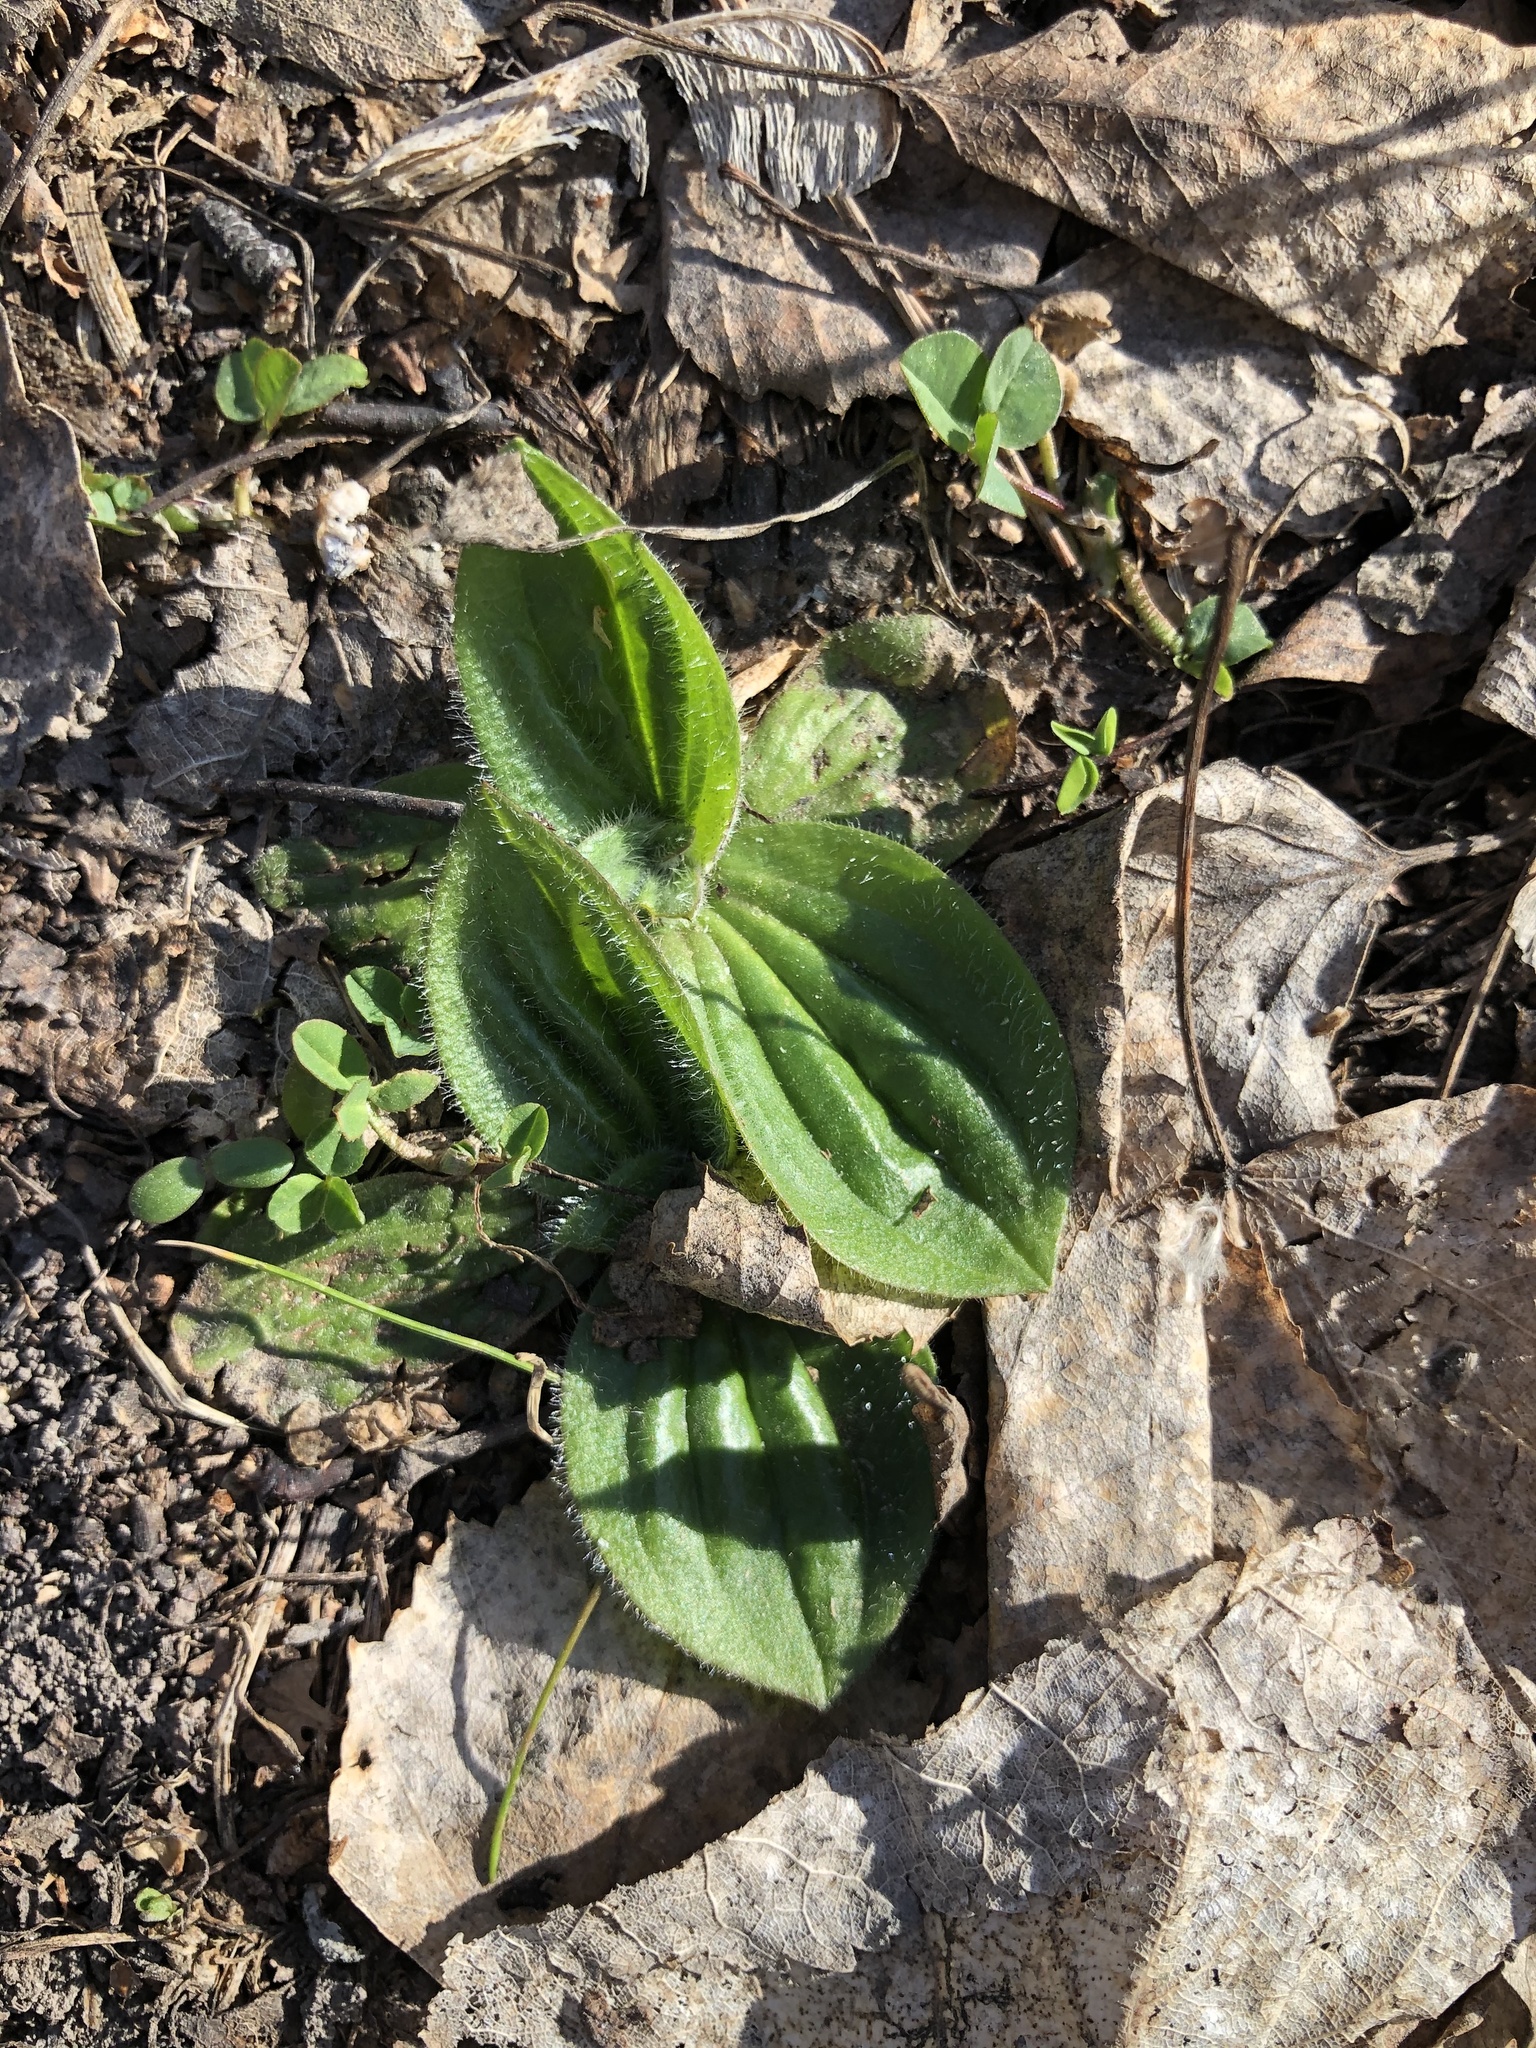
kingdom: Plantae
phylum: Tracheophyta
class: Magnoliopsida
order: Lamiales
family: Plantaginaceae
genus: Plantago
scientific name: Plantago media
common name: Hoary plantain
